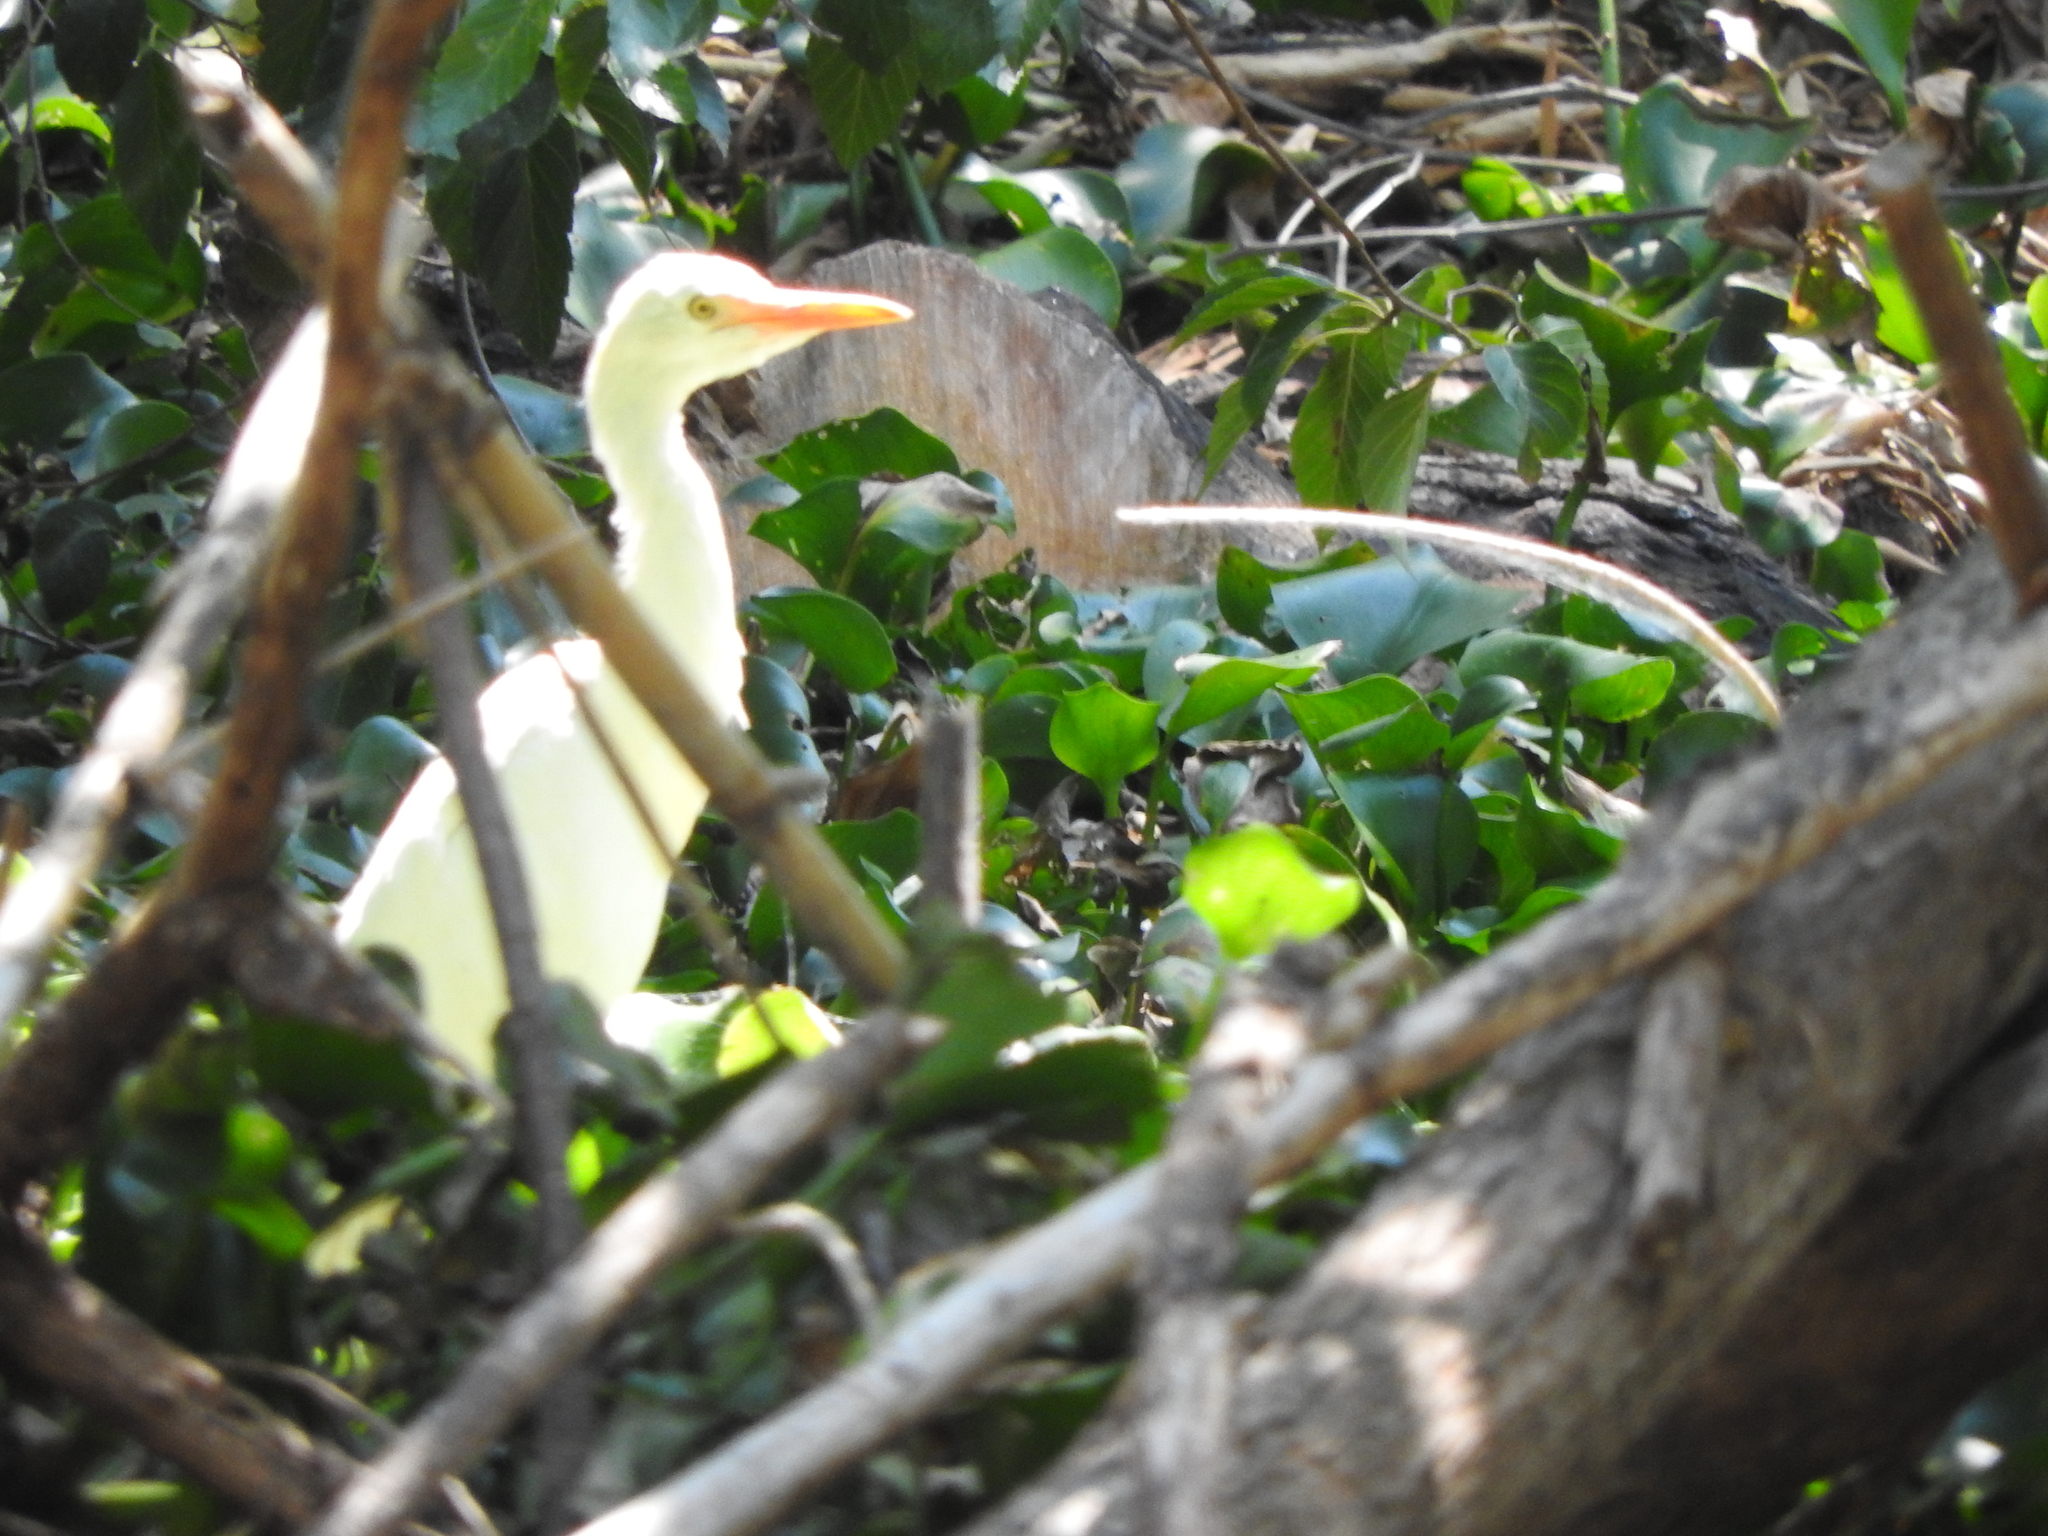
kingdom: Animalia
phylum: Chordata
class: Aves
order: Pelecaniformes
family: Ardeidae
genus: Bubulcus
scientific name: Bubulcus ibis
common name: Cattle egret
